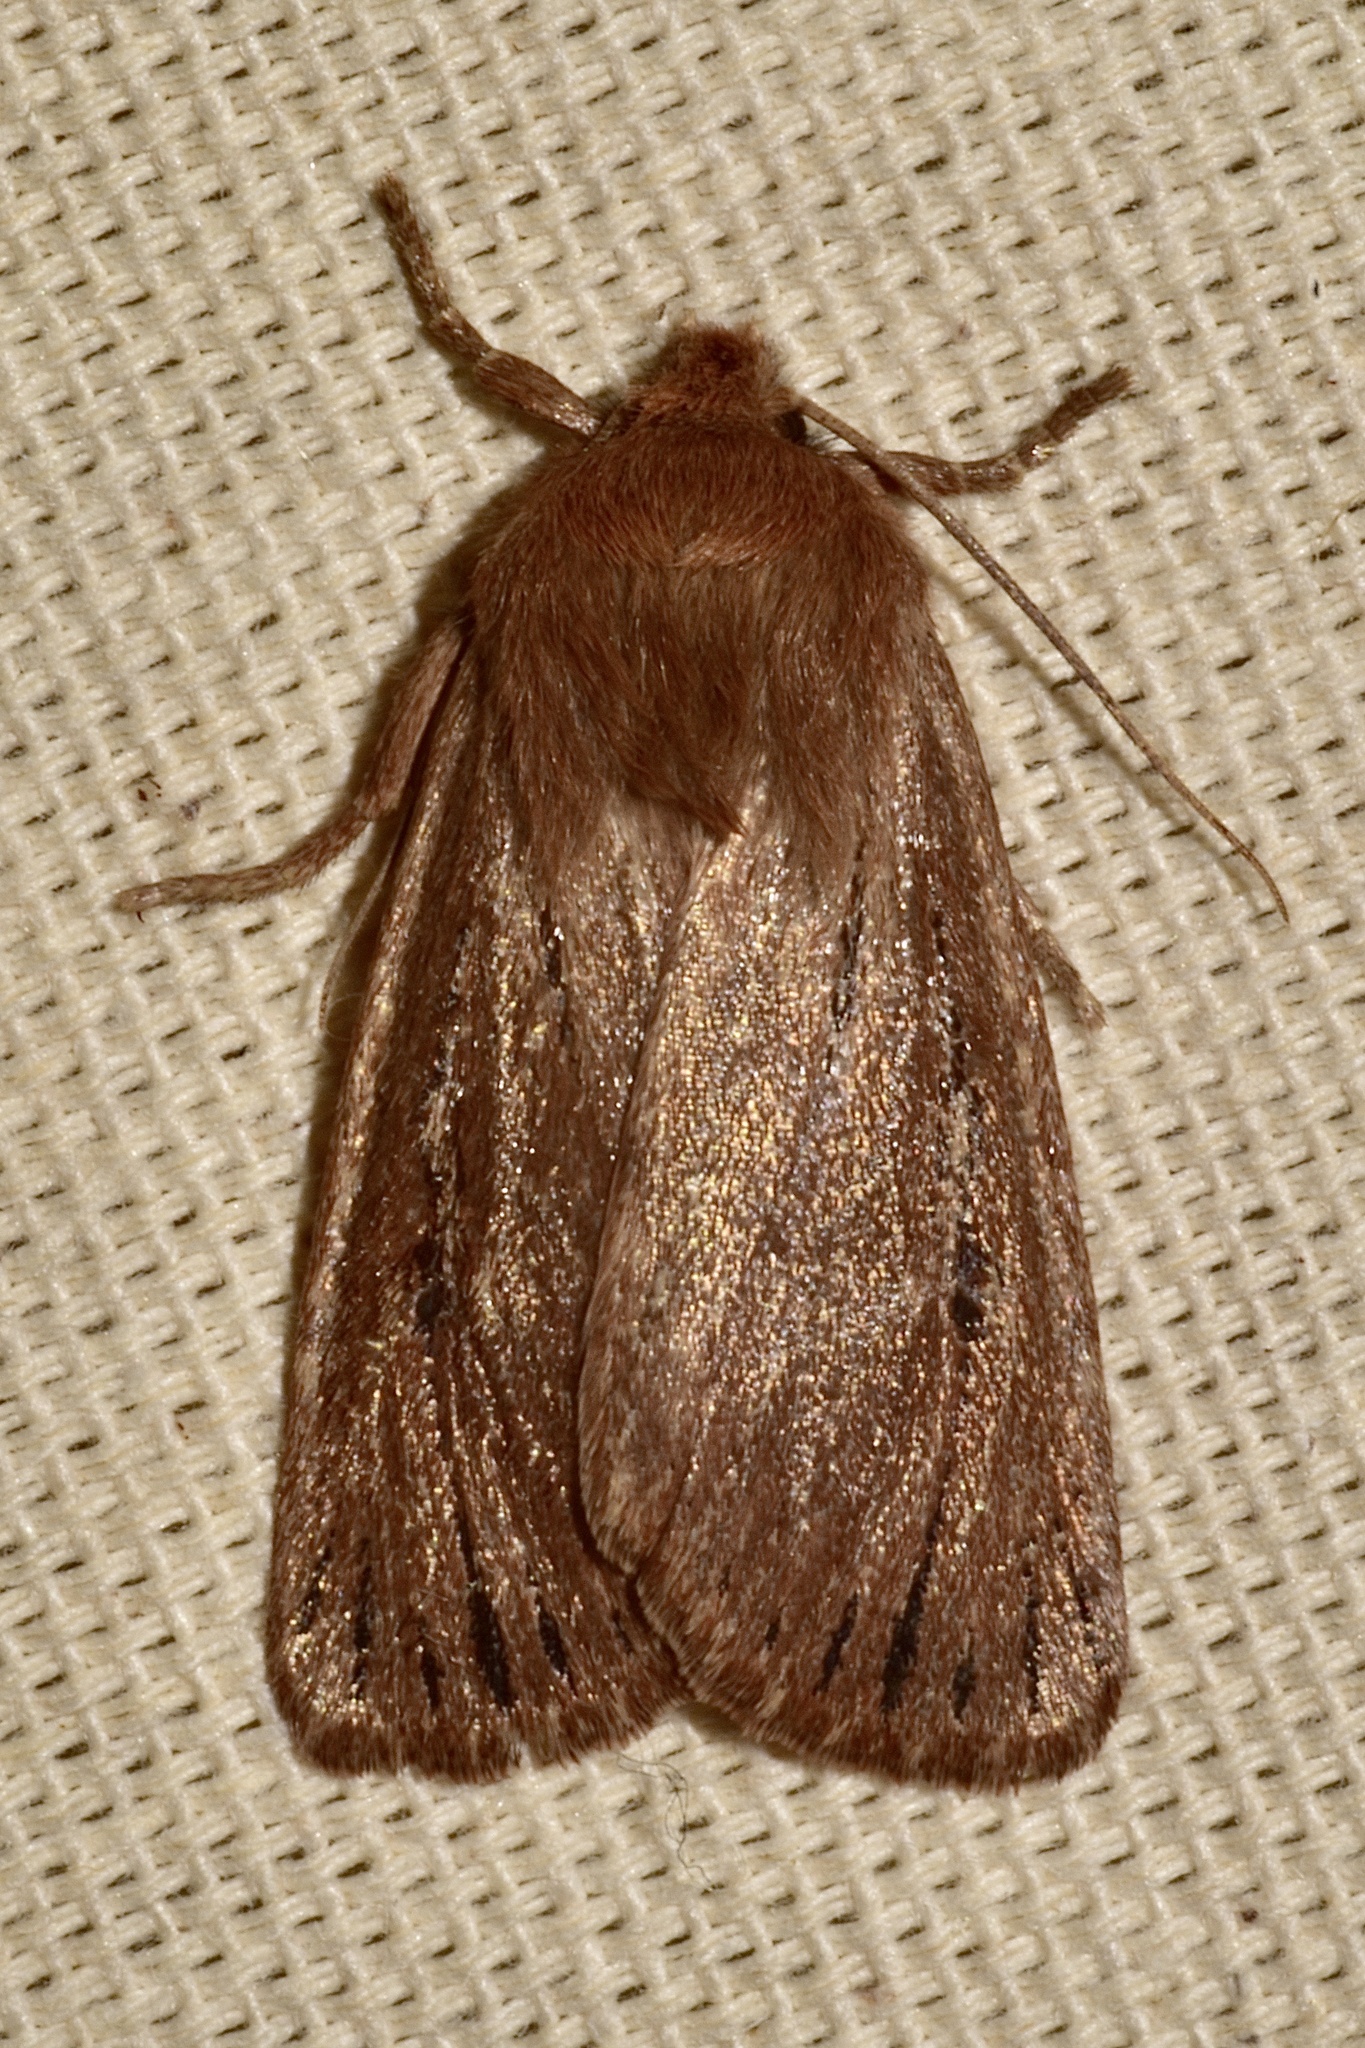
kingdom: Animalia
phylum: Arthropoda
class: Insecta
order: Lepidoptera
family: Noctuidae
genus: Ufeus
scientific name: Ufeus satyricus
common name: Brown satyr moth
